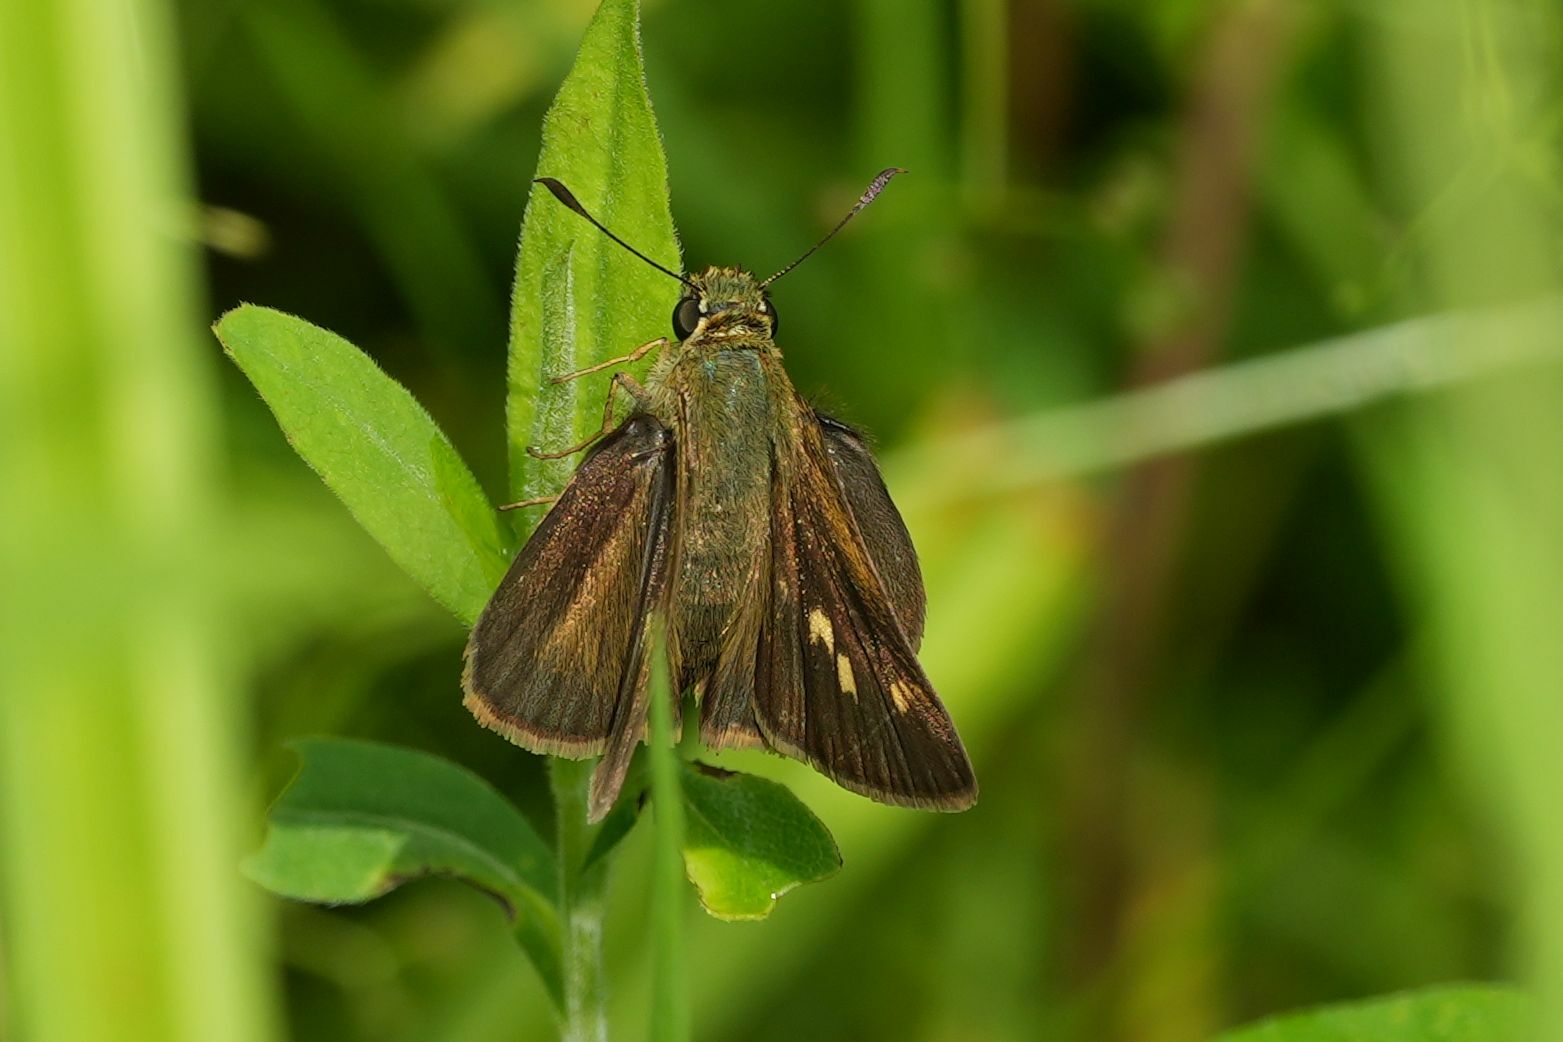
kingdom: Animalia
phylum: Arthropoda
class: Insecta
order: Lepidoptera
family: Hesperiidae
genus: Polites
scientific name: Polites egeremet
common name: Northern broken-dash
